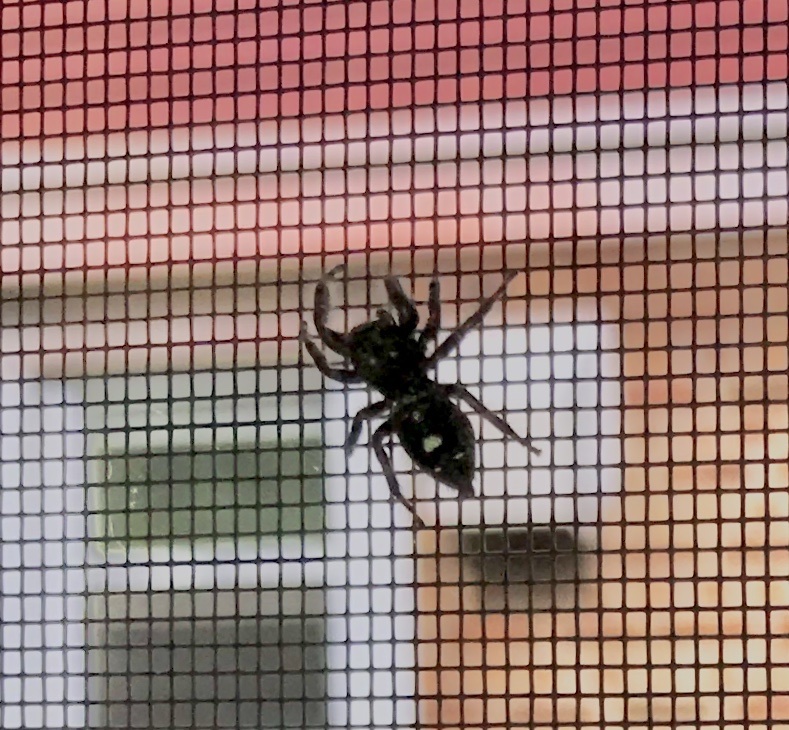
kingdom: Animalia
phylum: Arthropoda
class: Arachnida
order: Araneae
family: Salticidae
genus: Phidippus
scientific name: Phidippus audax
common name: Bold jumper
